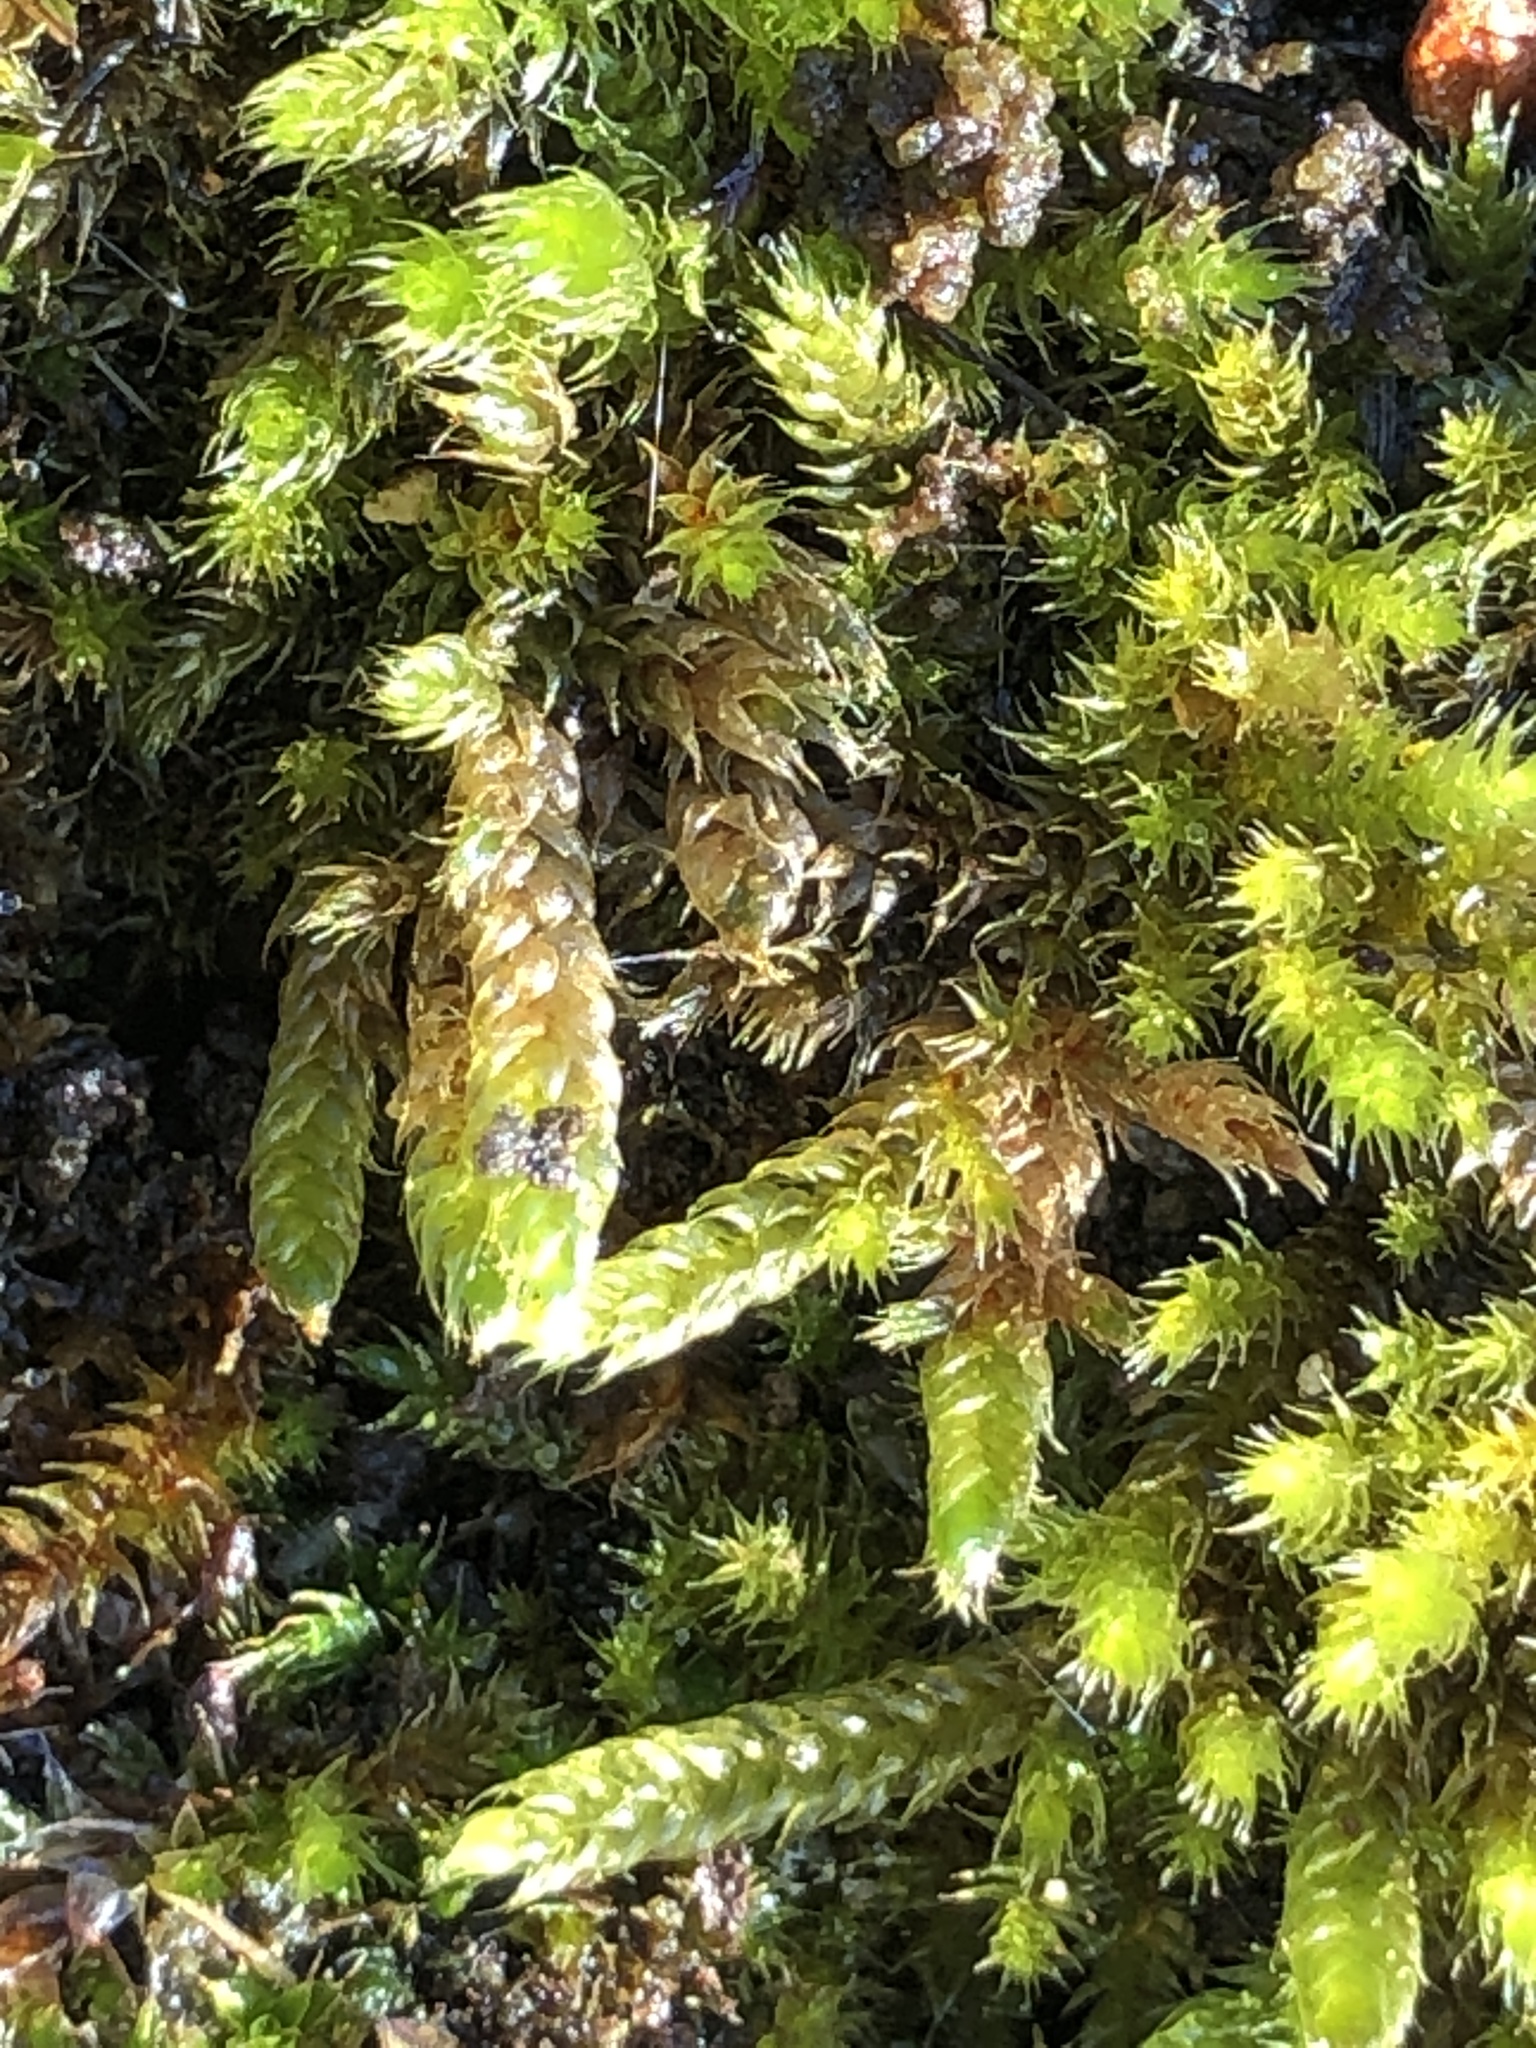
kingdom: Plantae
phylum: Bryophyta
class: Bryopsida
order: Hypnales
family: Hypnaceae
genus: Hypnum
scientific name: Hypnum cupressiforme
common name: Cypress-leaved plait-moss
